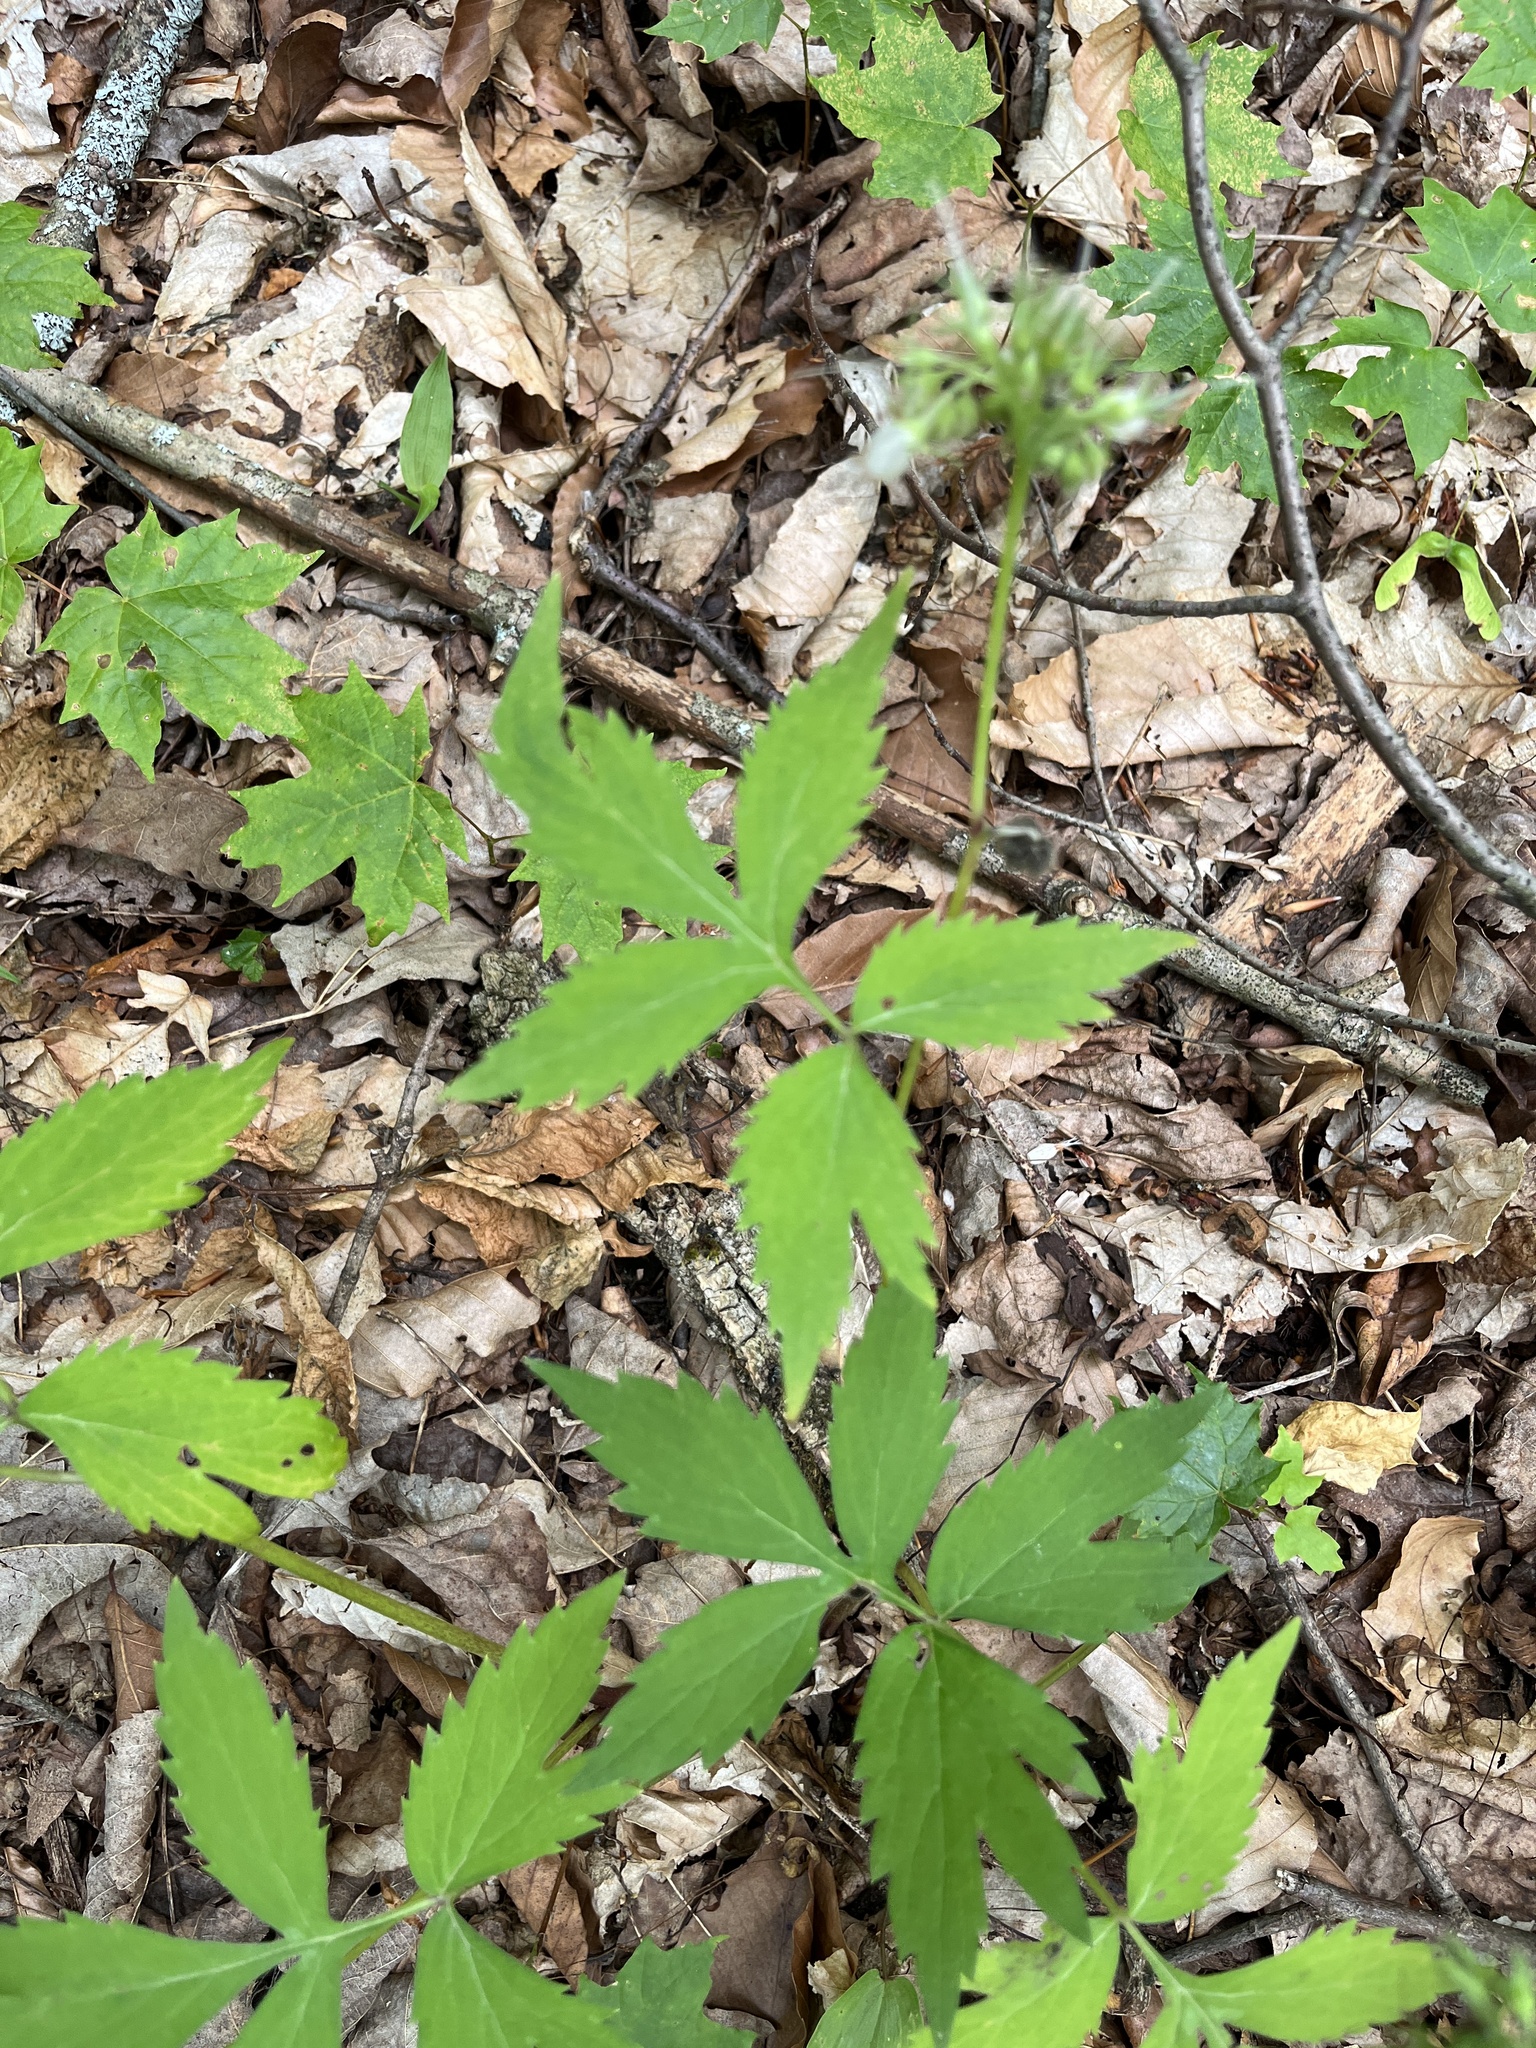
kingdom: Plantae
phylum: Tracheophyta
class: Magnoliopsida
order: Boraginales
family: Hydrophyllaceae
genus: Hydrophyllum
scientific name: Hydrophyllum virginianum
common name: Virginia waterleaf
